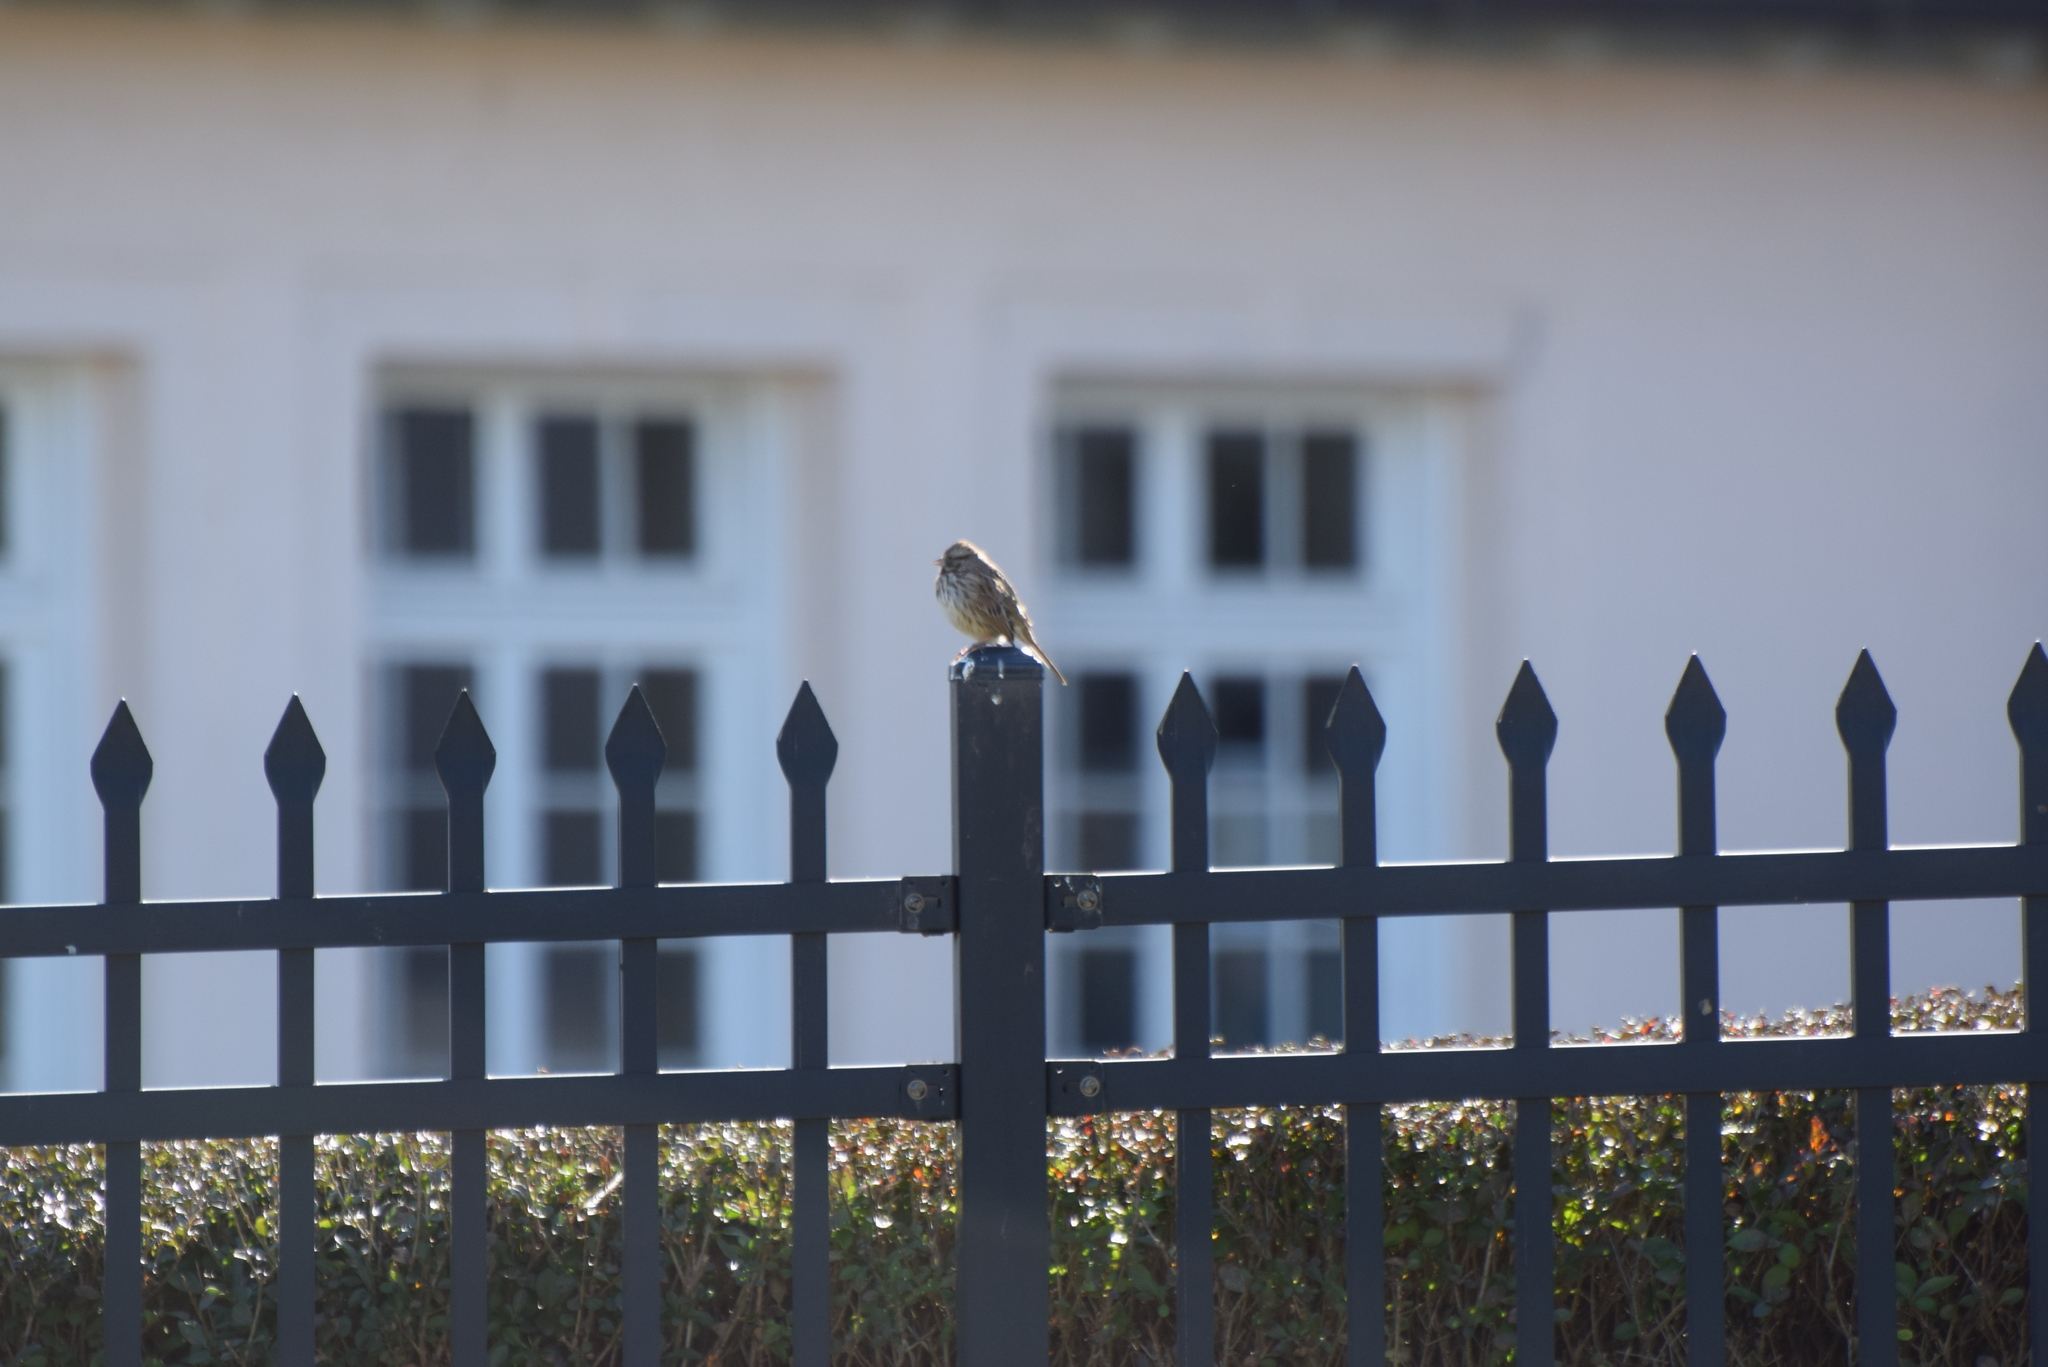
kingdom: Animalia
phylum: Chordata
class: Aves
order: Passeriformes
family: Passerellidae
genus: Melospiza
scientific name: Melospiza melodia
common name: Song sparrow
